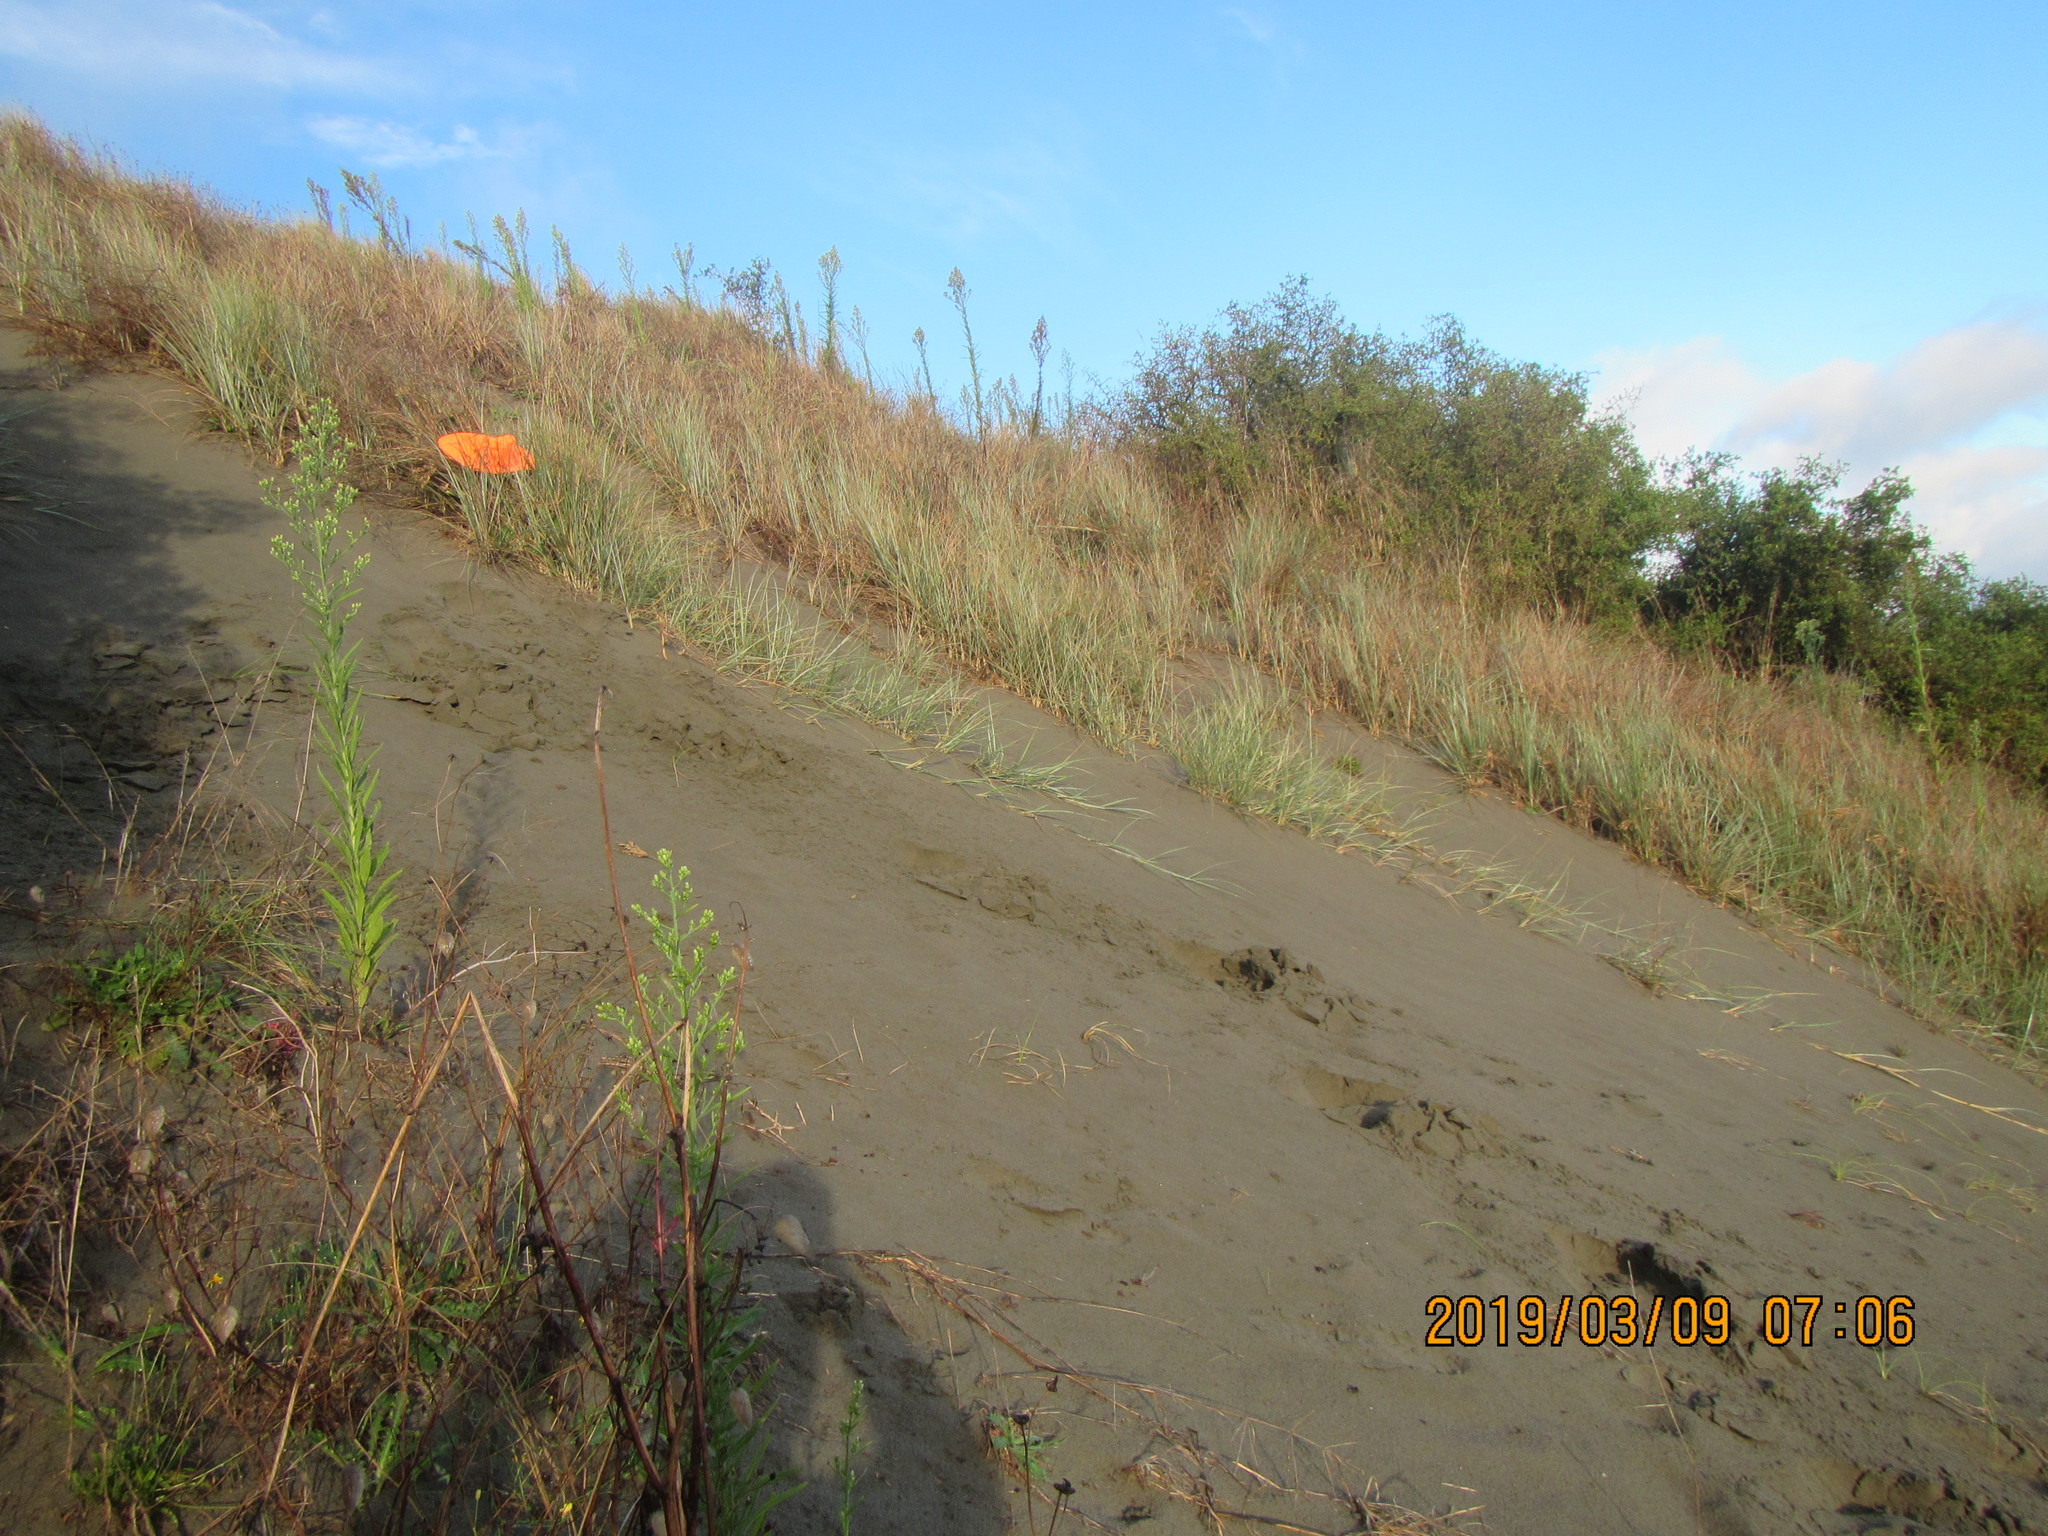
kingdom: Animalia
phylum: Arthropoda
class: Arachnida
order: Araneae
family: Theridiidae
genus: Latrodectus
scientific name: Latrodectus katipo
